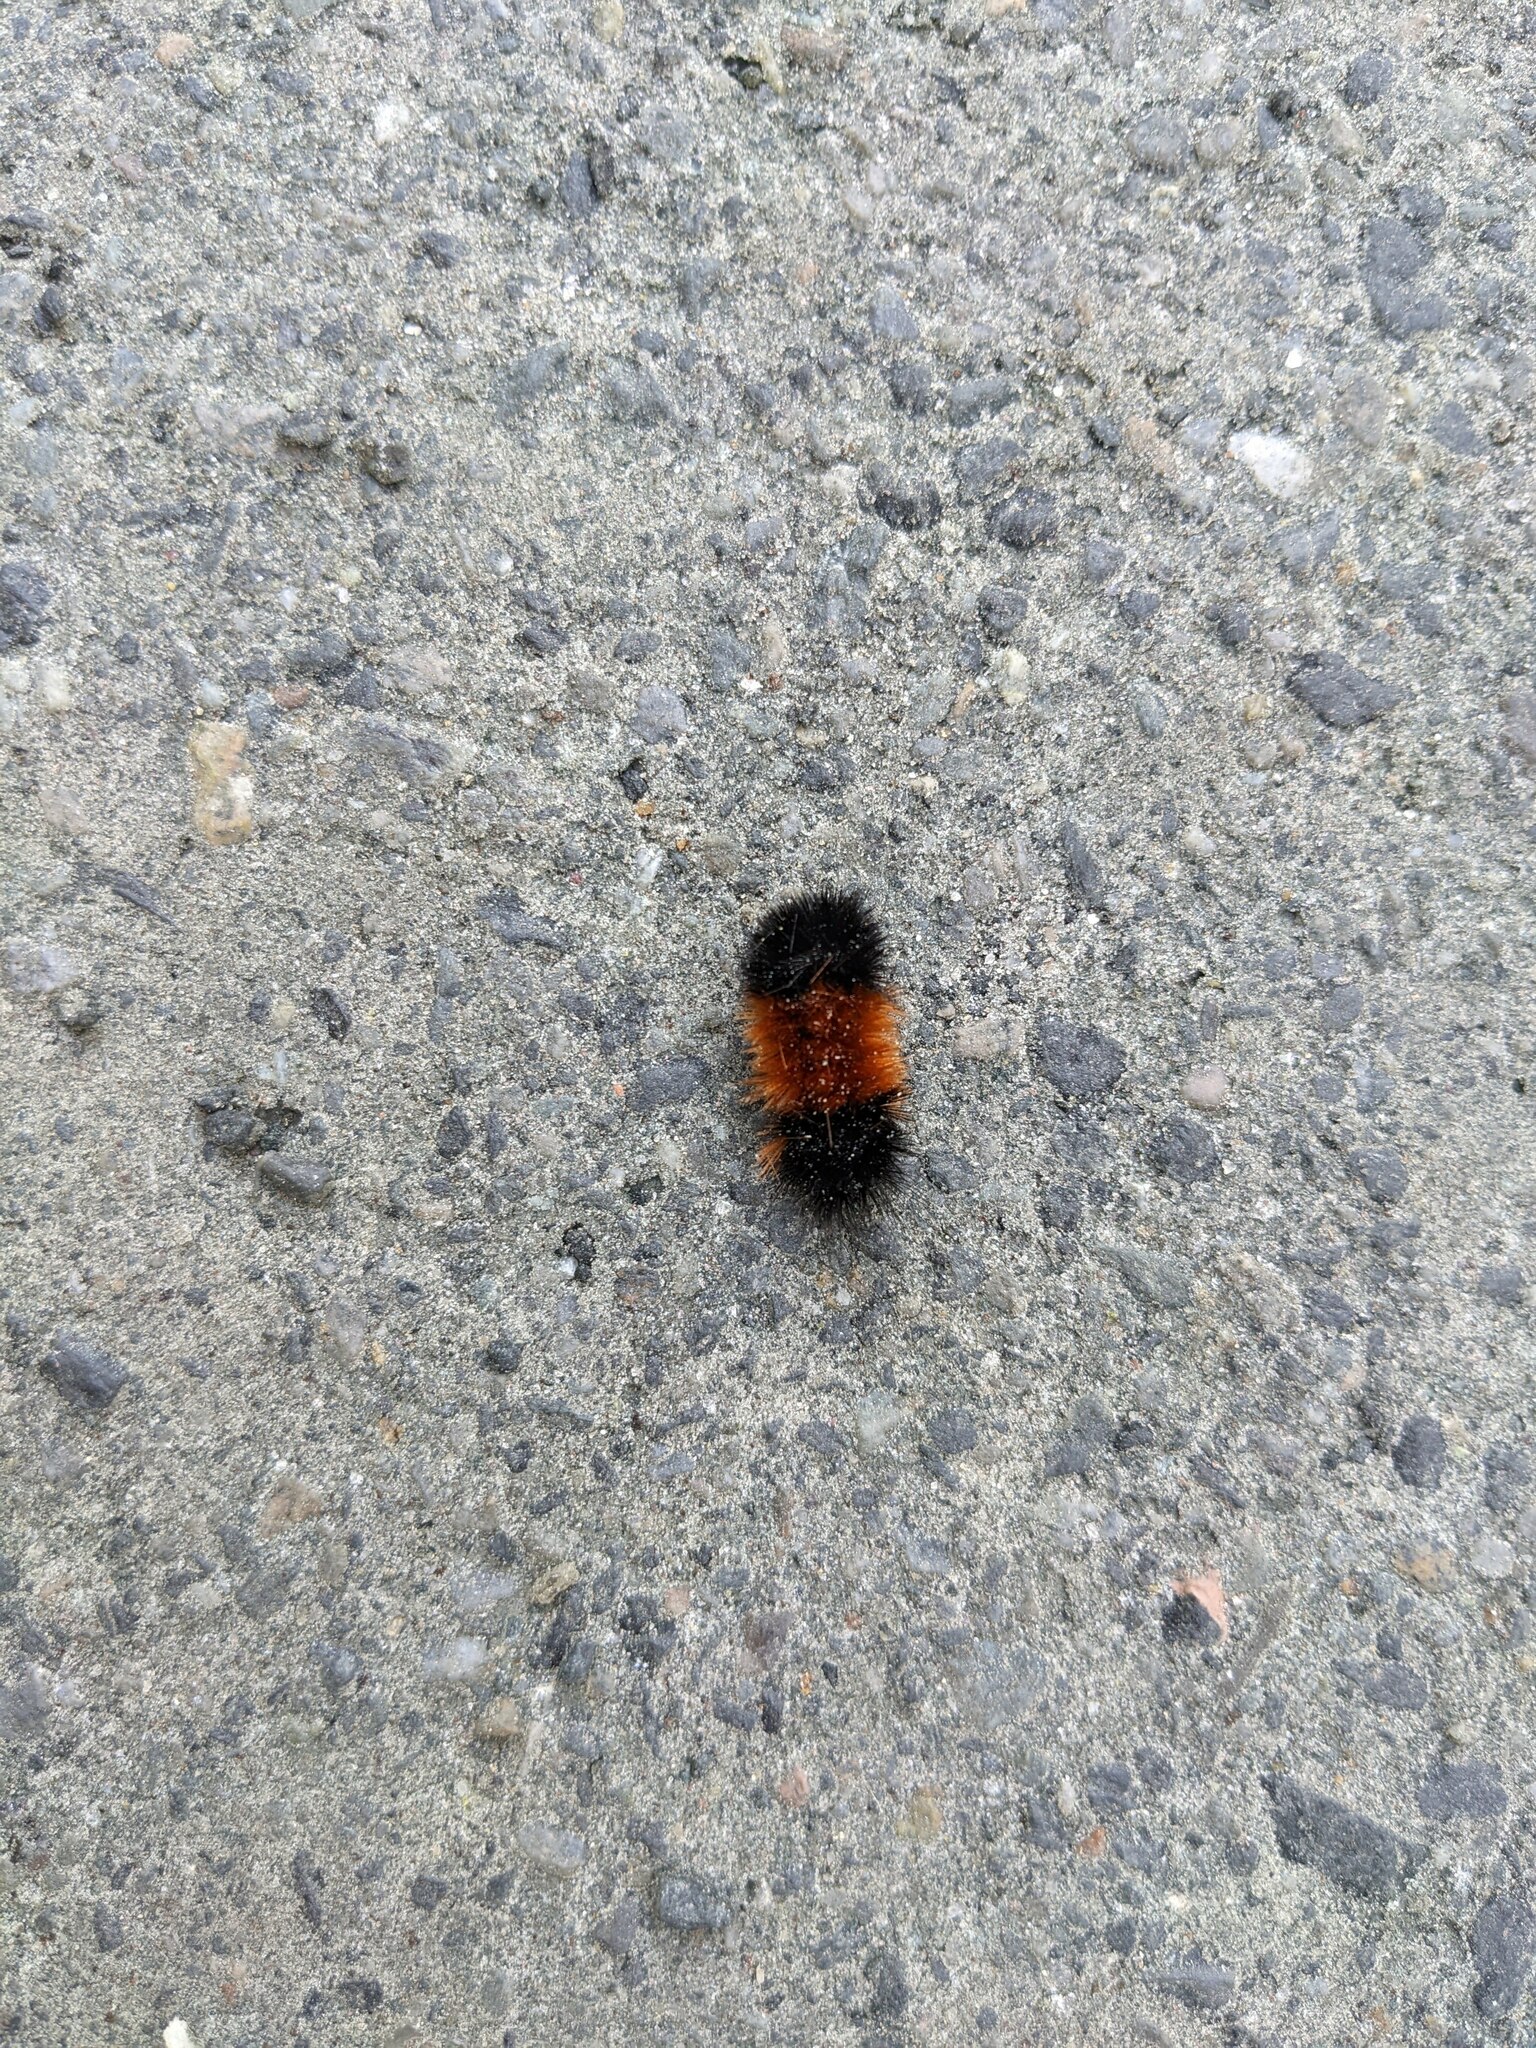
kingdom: Animalia
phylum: Arthropoda
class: Insecta
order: Lepidoptera
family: Erebidae
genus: Pyrrharctia
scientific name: Pyrrharctia isabella
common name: Isabella tiger moth
